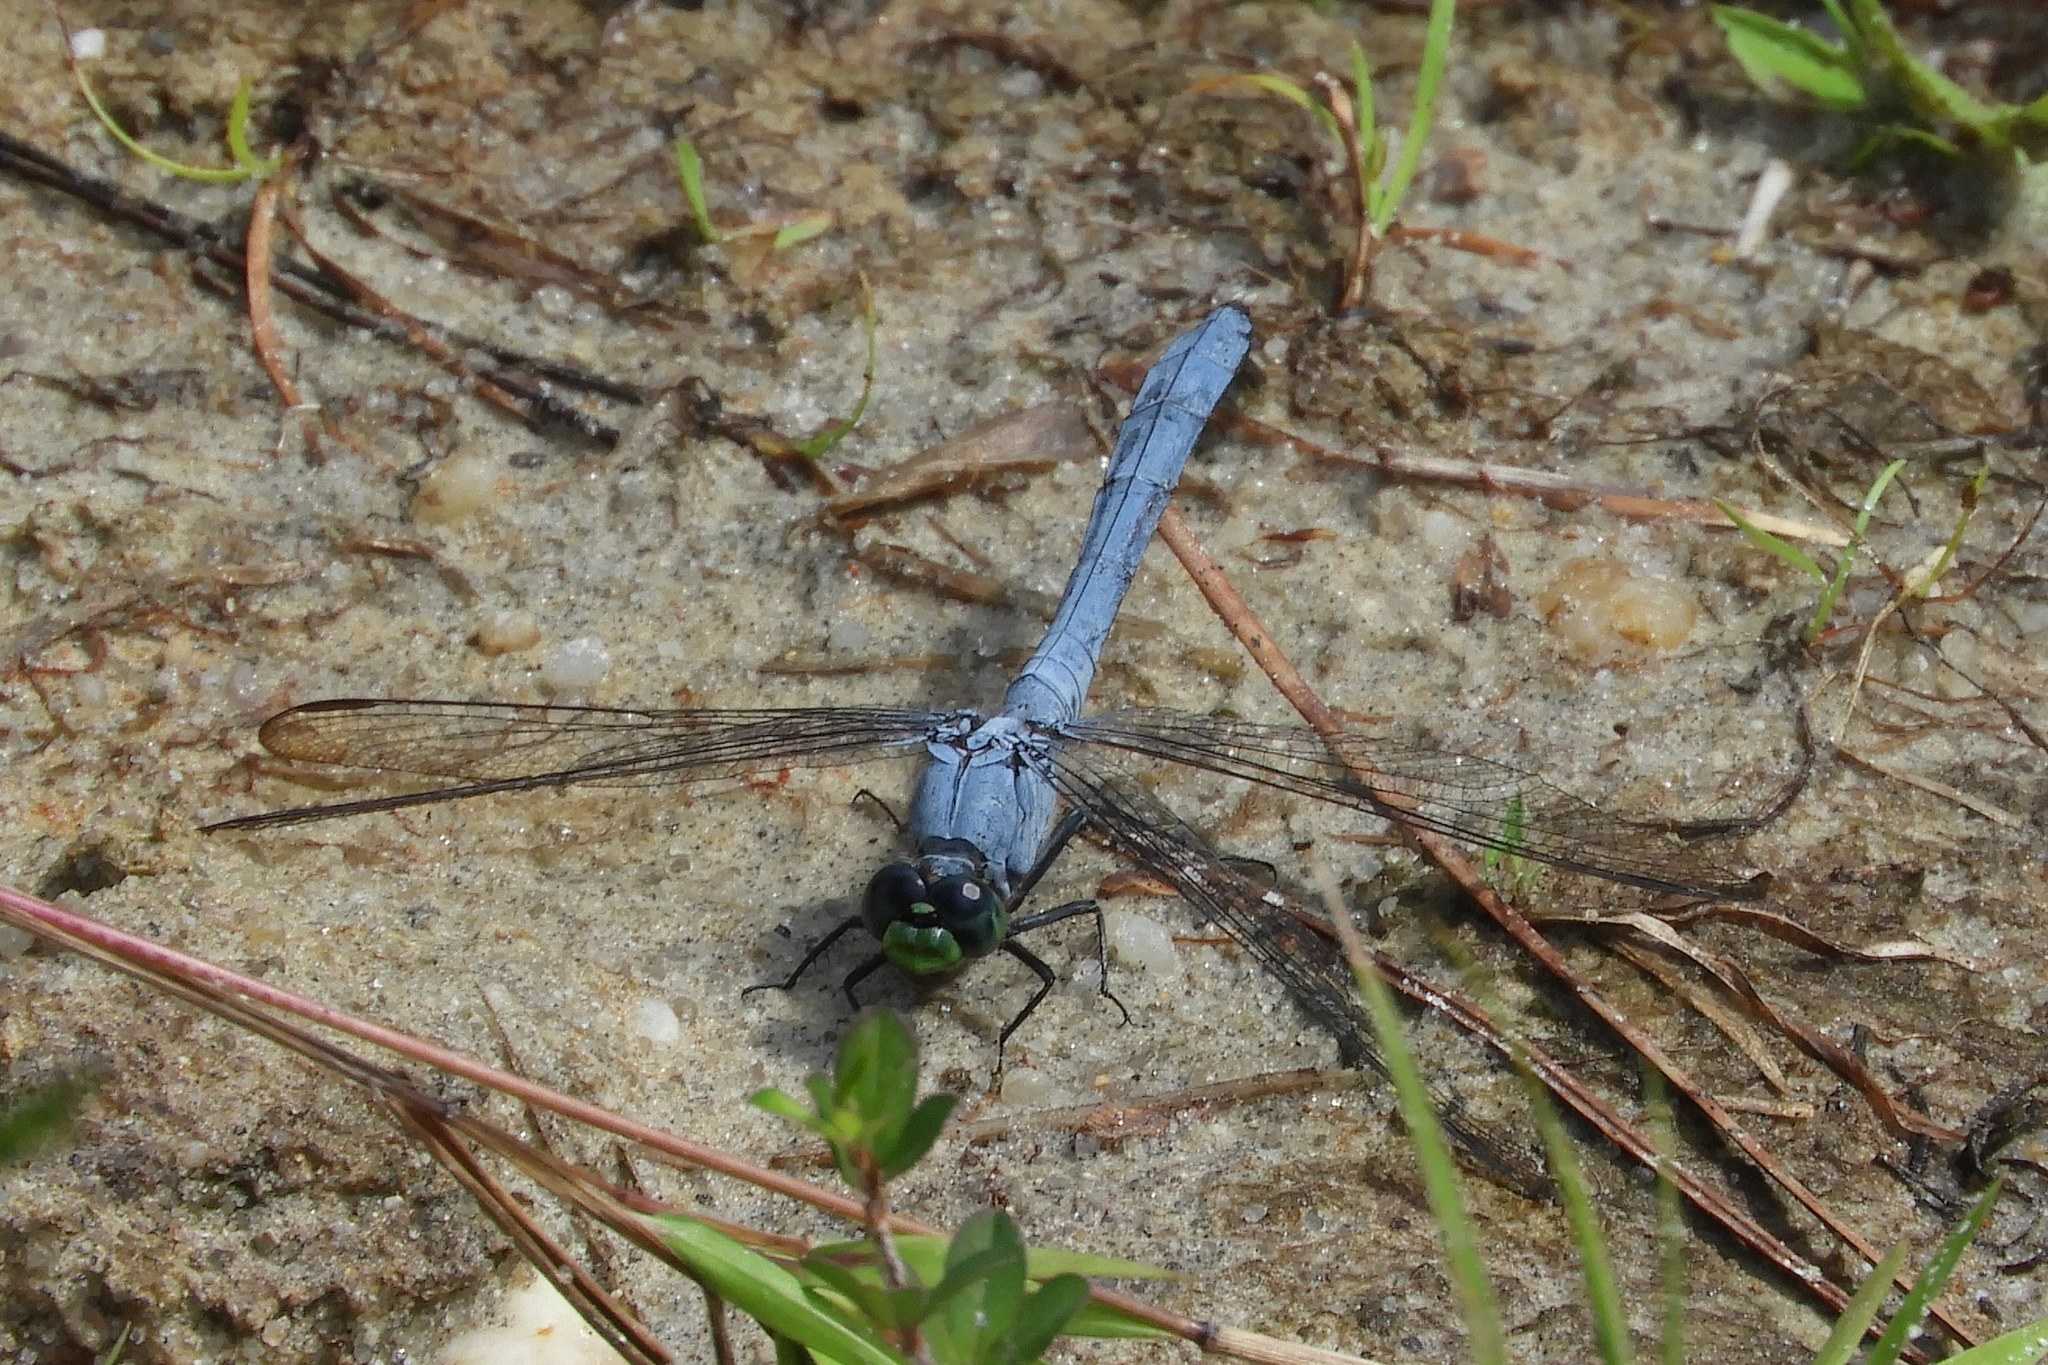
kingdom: Animalia
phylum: Arthropoda
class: Insecta
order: Odonata
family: Libellulidae
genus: Erythemis
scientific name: Erythemis simplicicollis
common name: Eastern pondhawk
